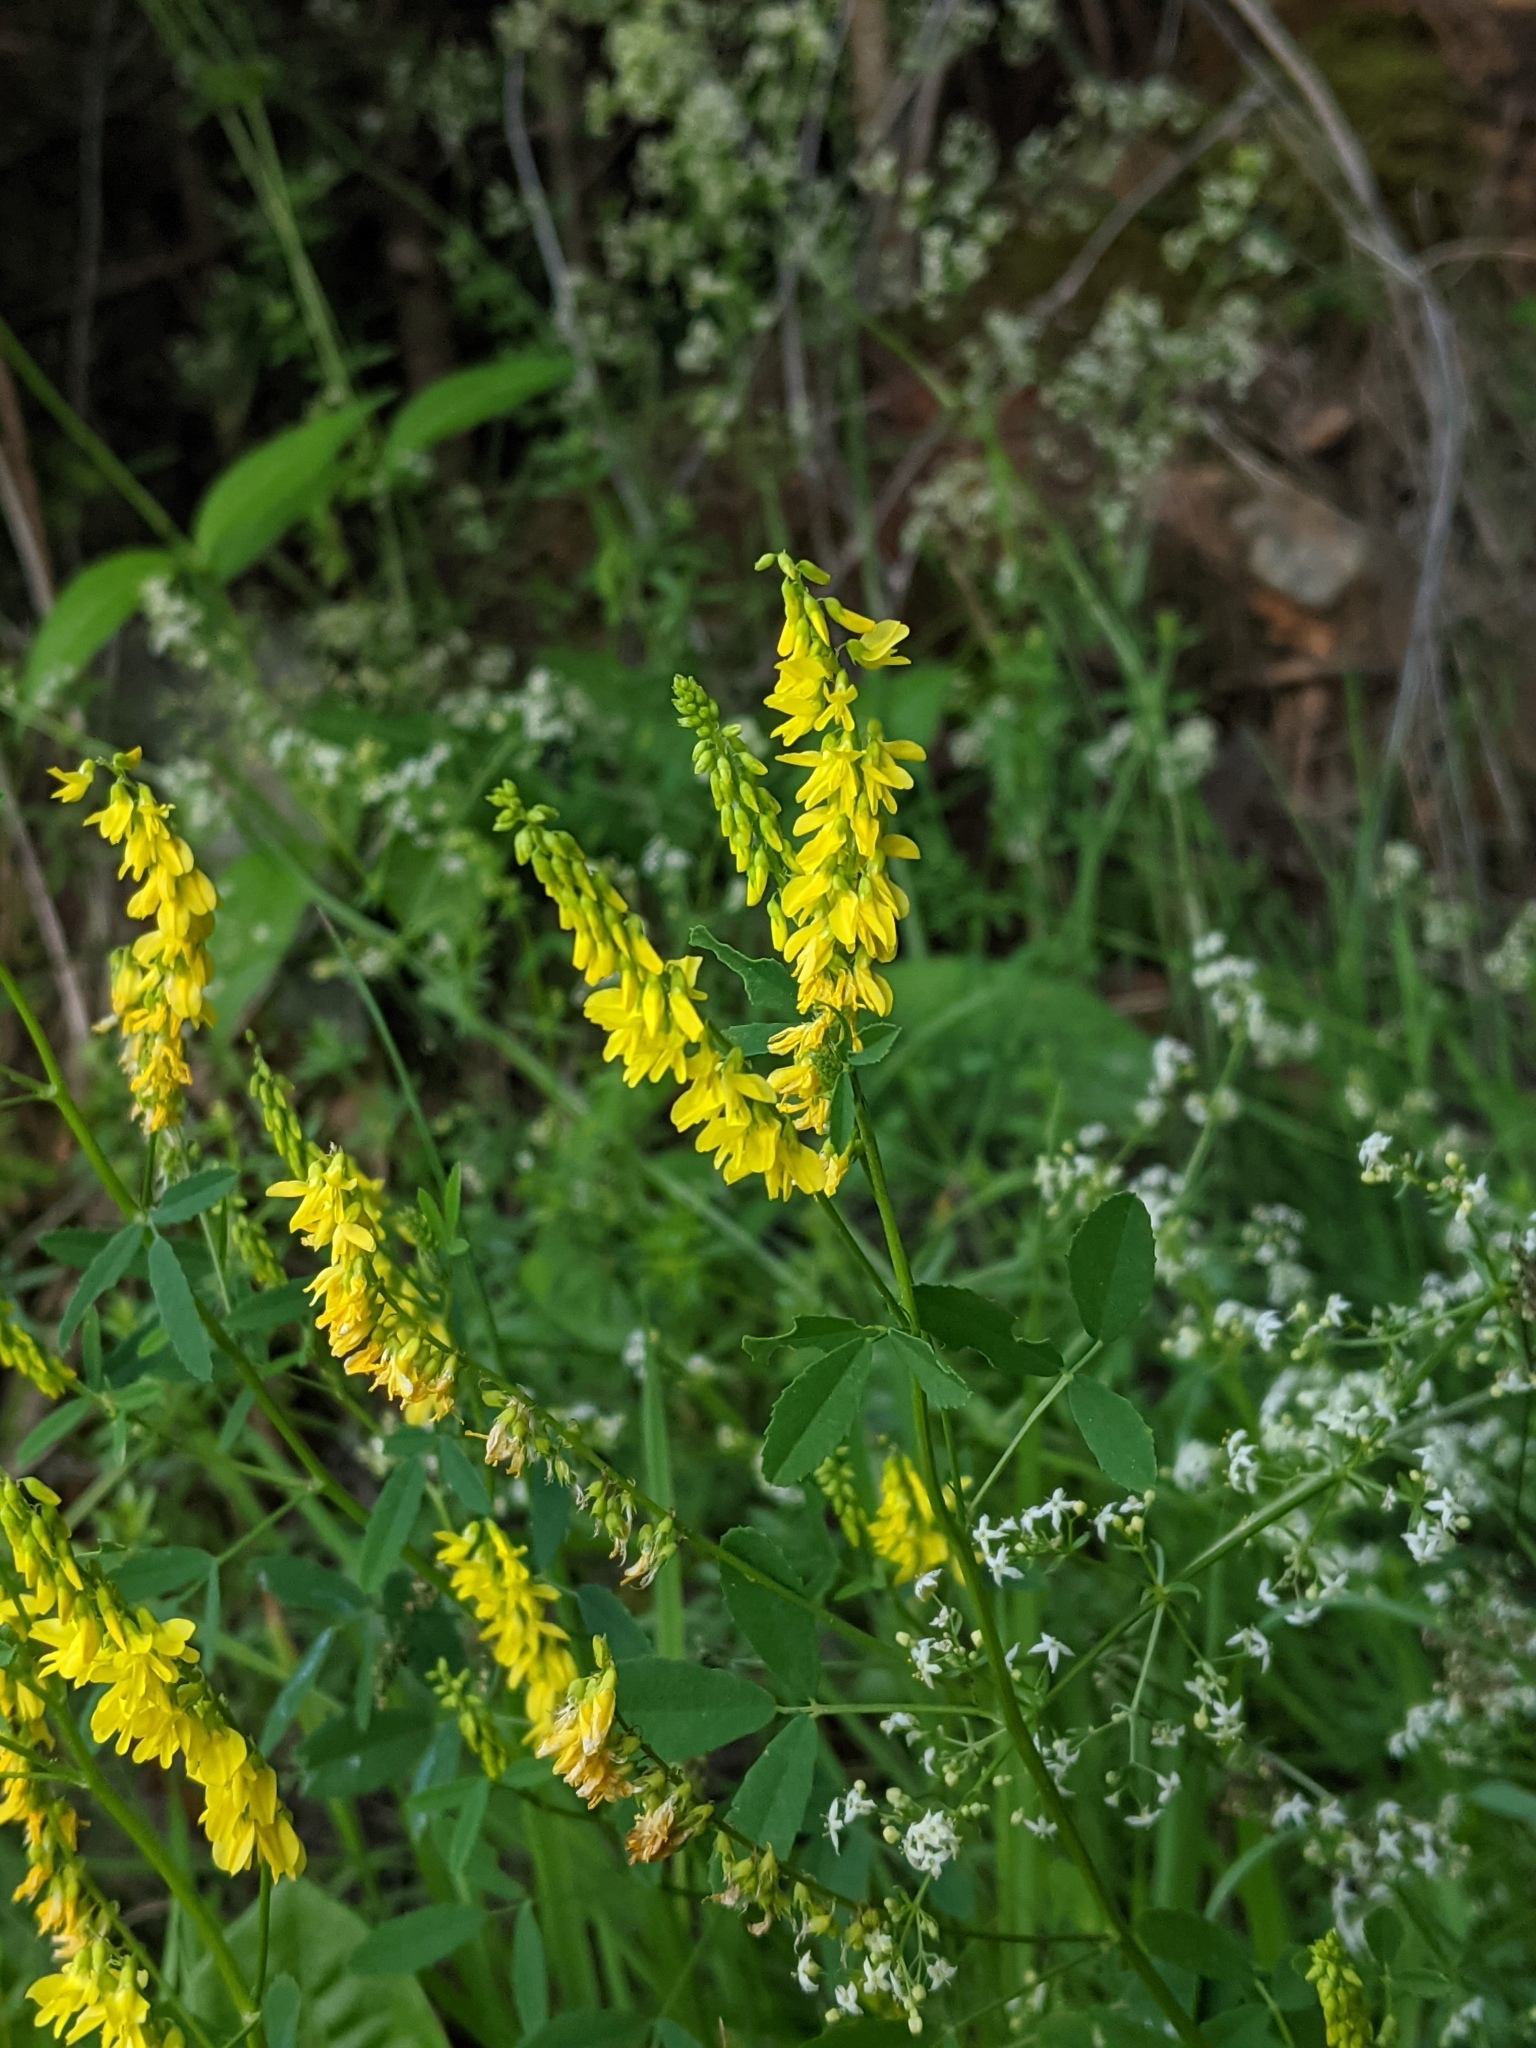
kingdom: Plantae
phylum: Tracheophyta
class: Magnoliopsida
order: Fabales
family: Fabaceae
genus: Melilotus
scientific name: Melilotus officinalis
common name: Sweetclover
